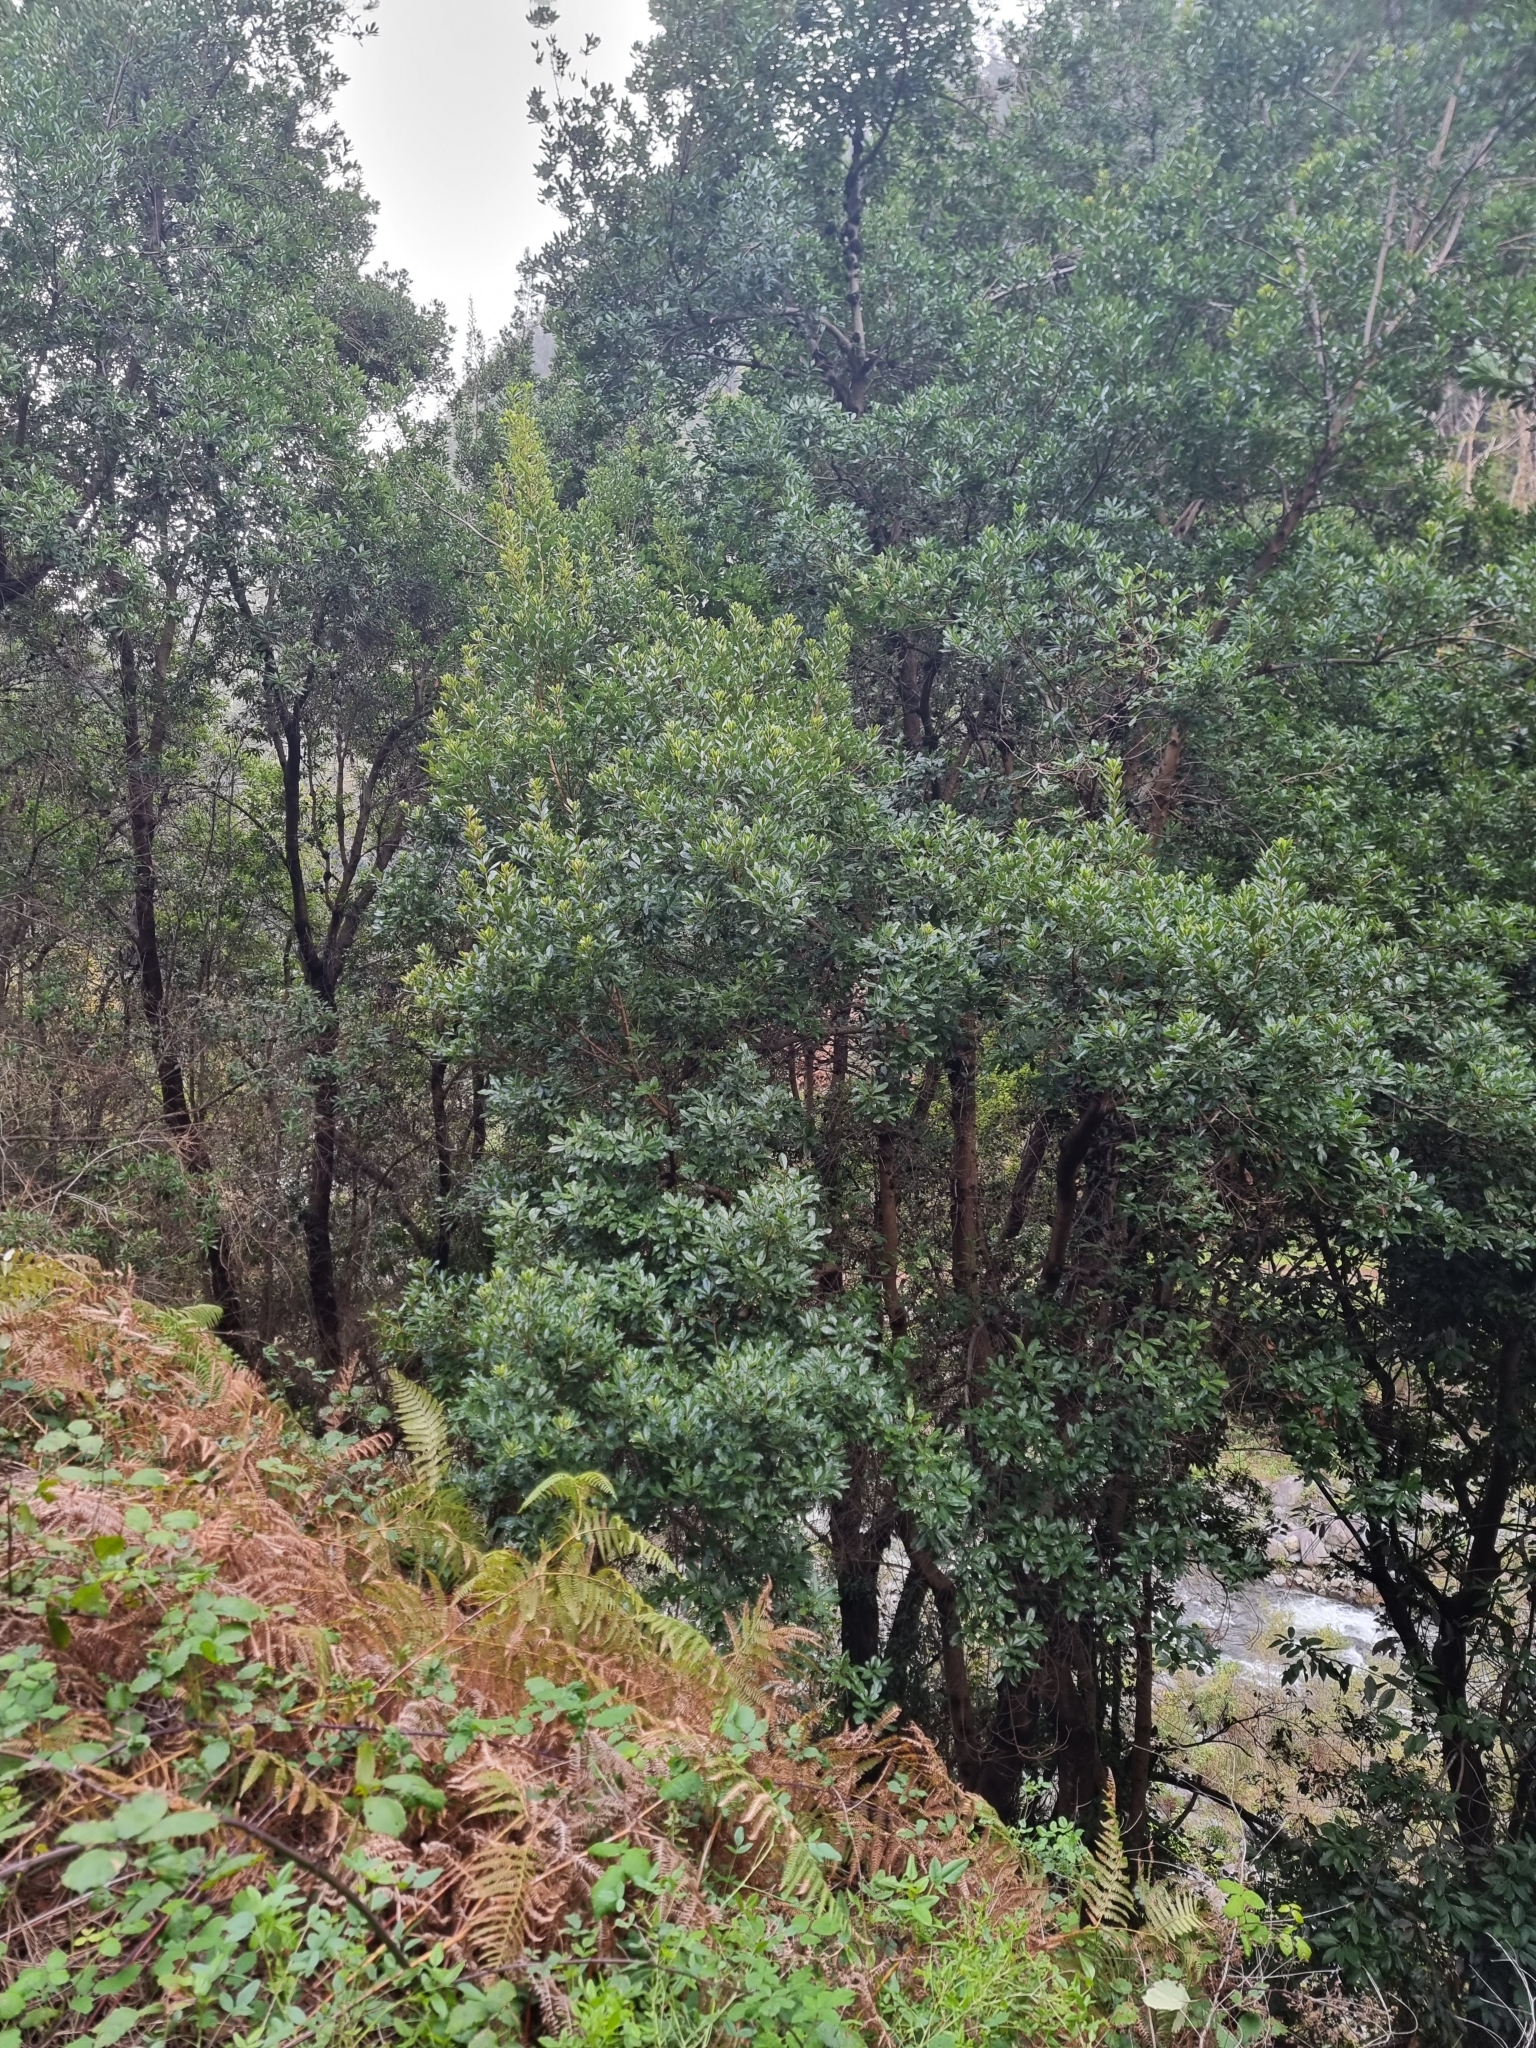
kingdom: Plantae
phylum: Tracheophyta
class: Magnoliopsida
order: Fagales
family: Myricaceae
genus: Morella
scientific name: Morella faya
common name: Firetree
